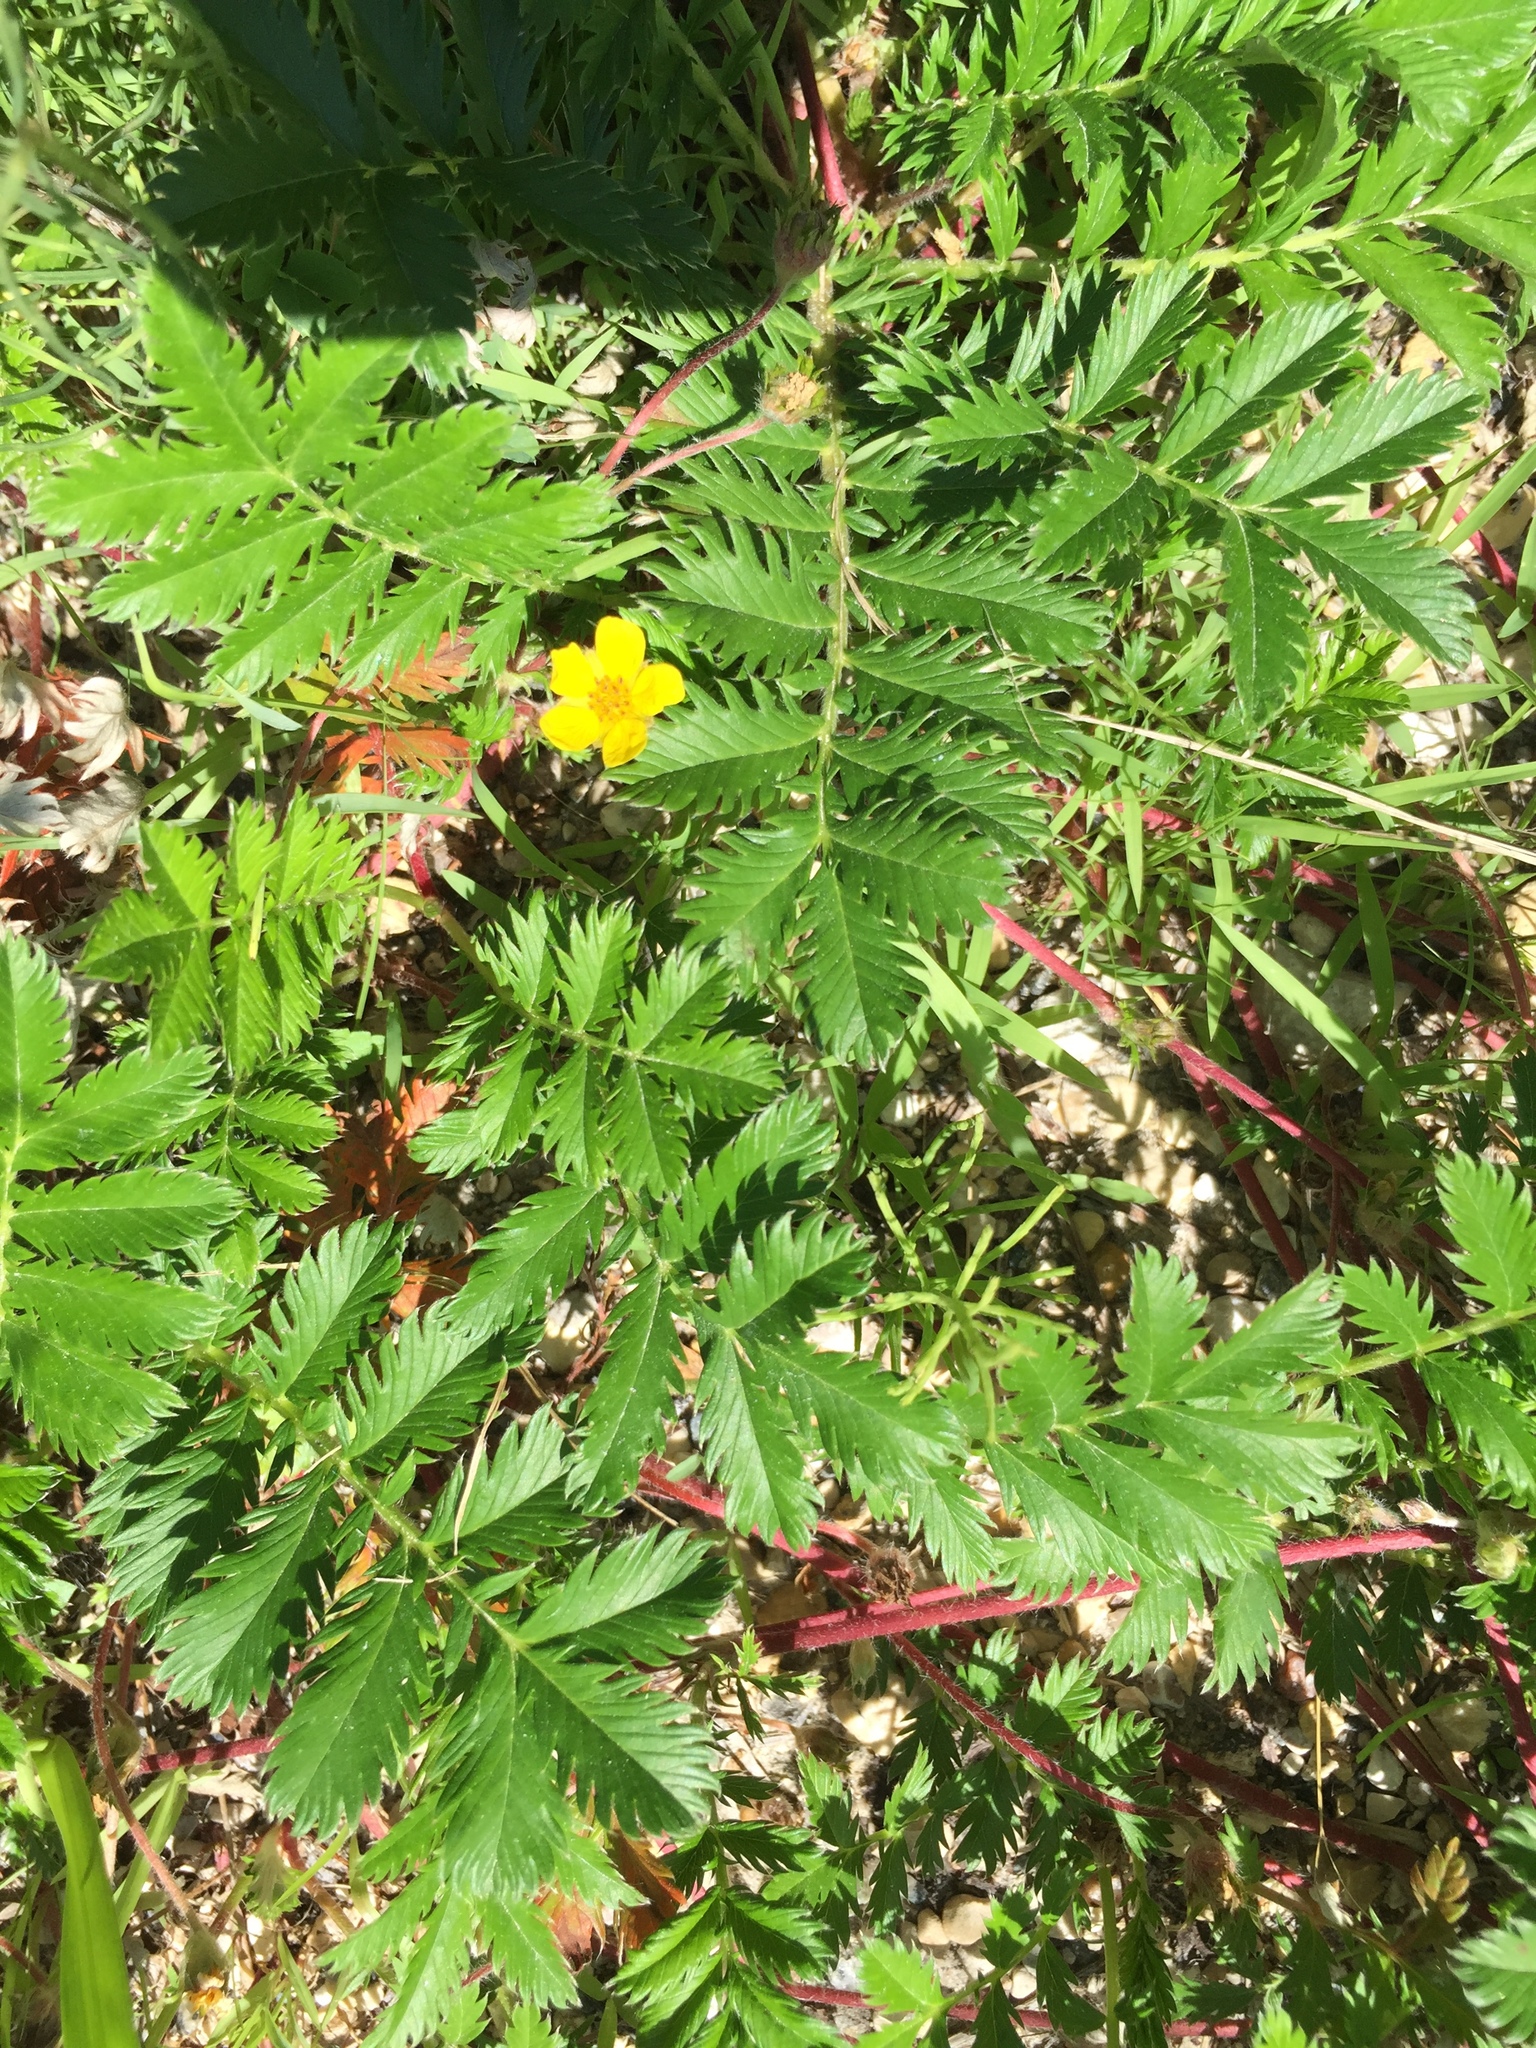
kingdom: Plantae
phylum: Tracheophyta
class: Magnoliopsida
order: Rosales
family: Rosaceae
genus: Argentina
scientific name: Argentina anserina
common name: Common silverweed
